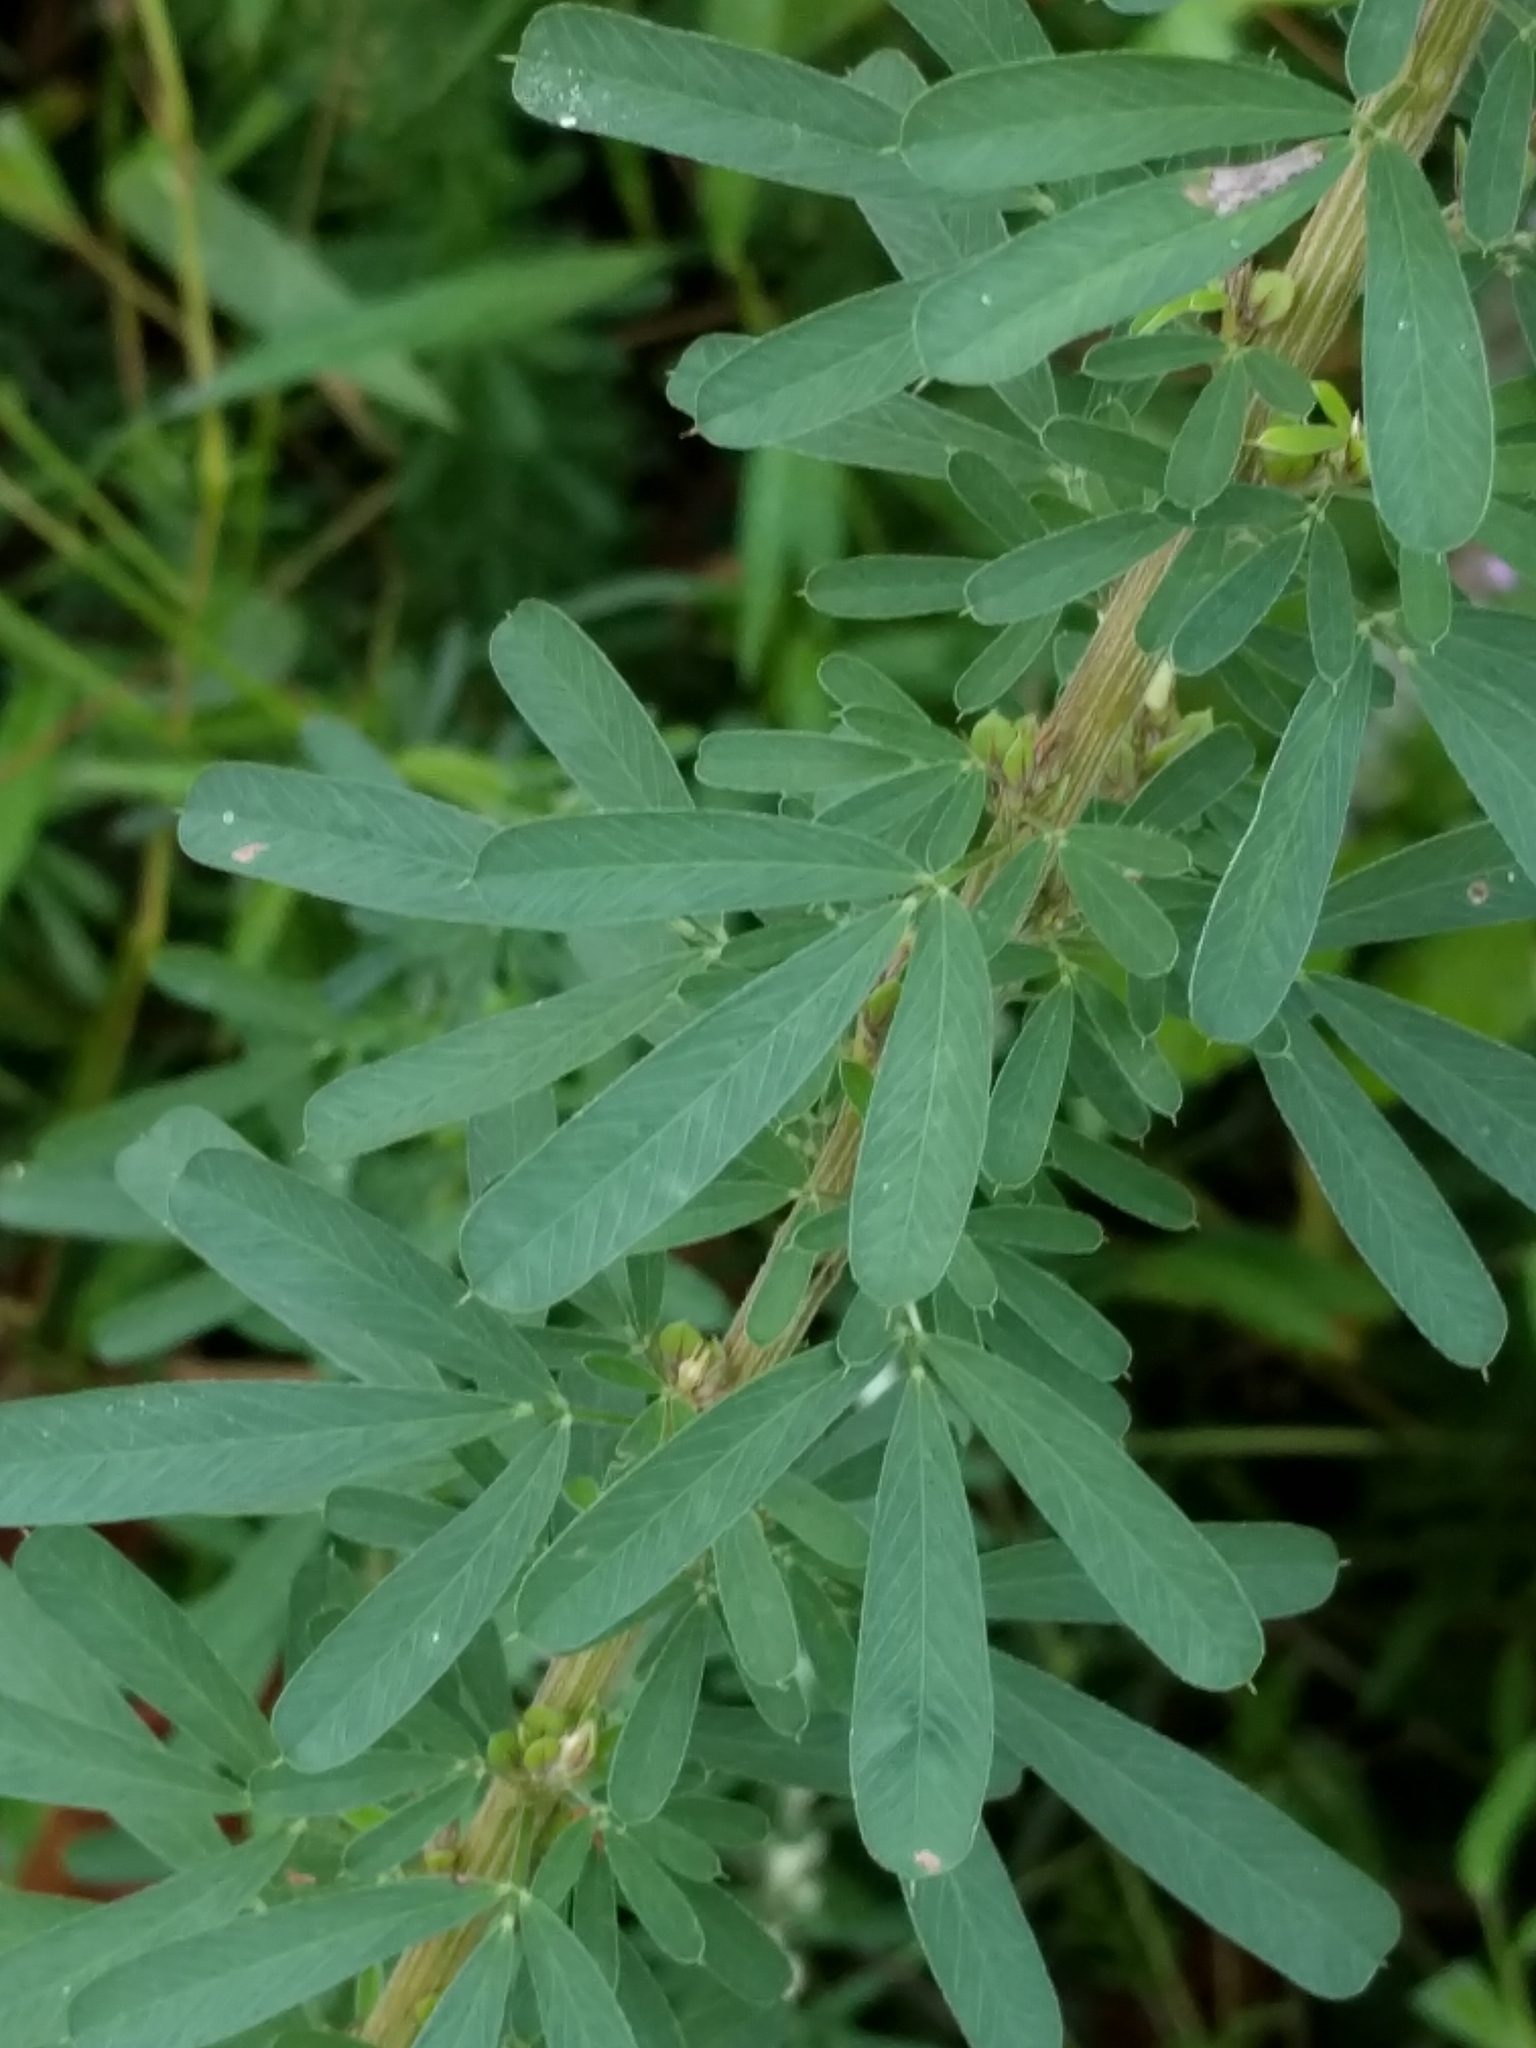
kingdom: Plantae
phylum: Tracheophyta
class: Magnoliopsida
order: Fabales
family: Fabaceae
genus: Lespedeza
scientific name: Lespedeza cuneata
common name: Chinese bush-clover
